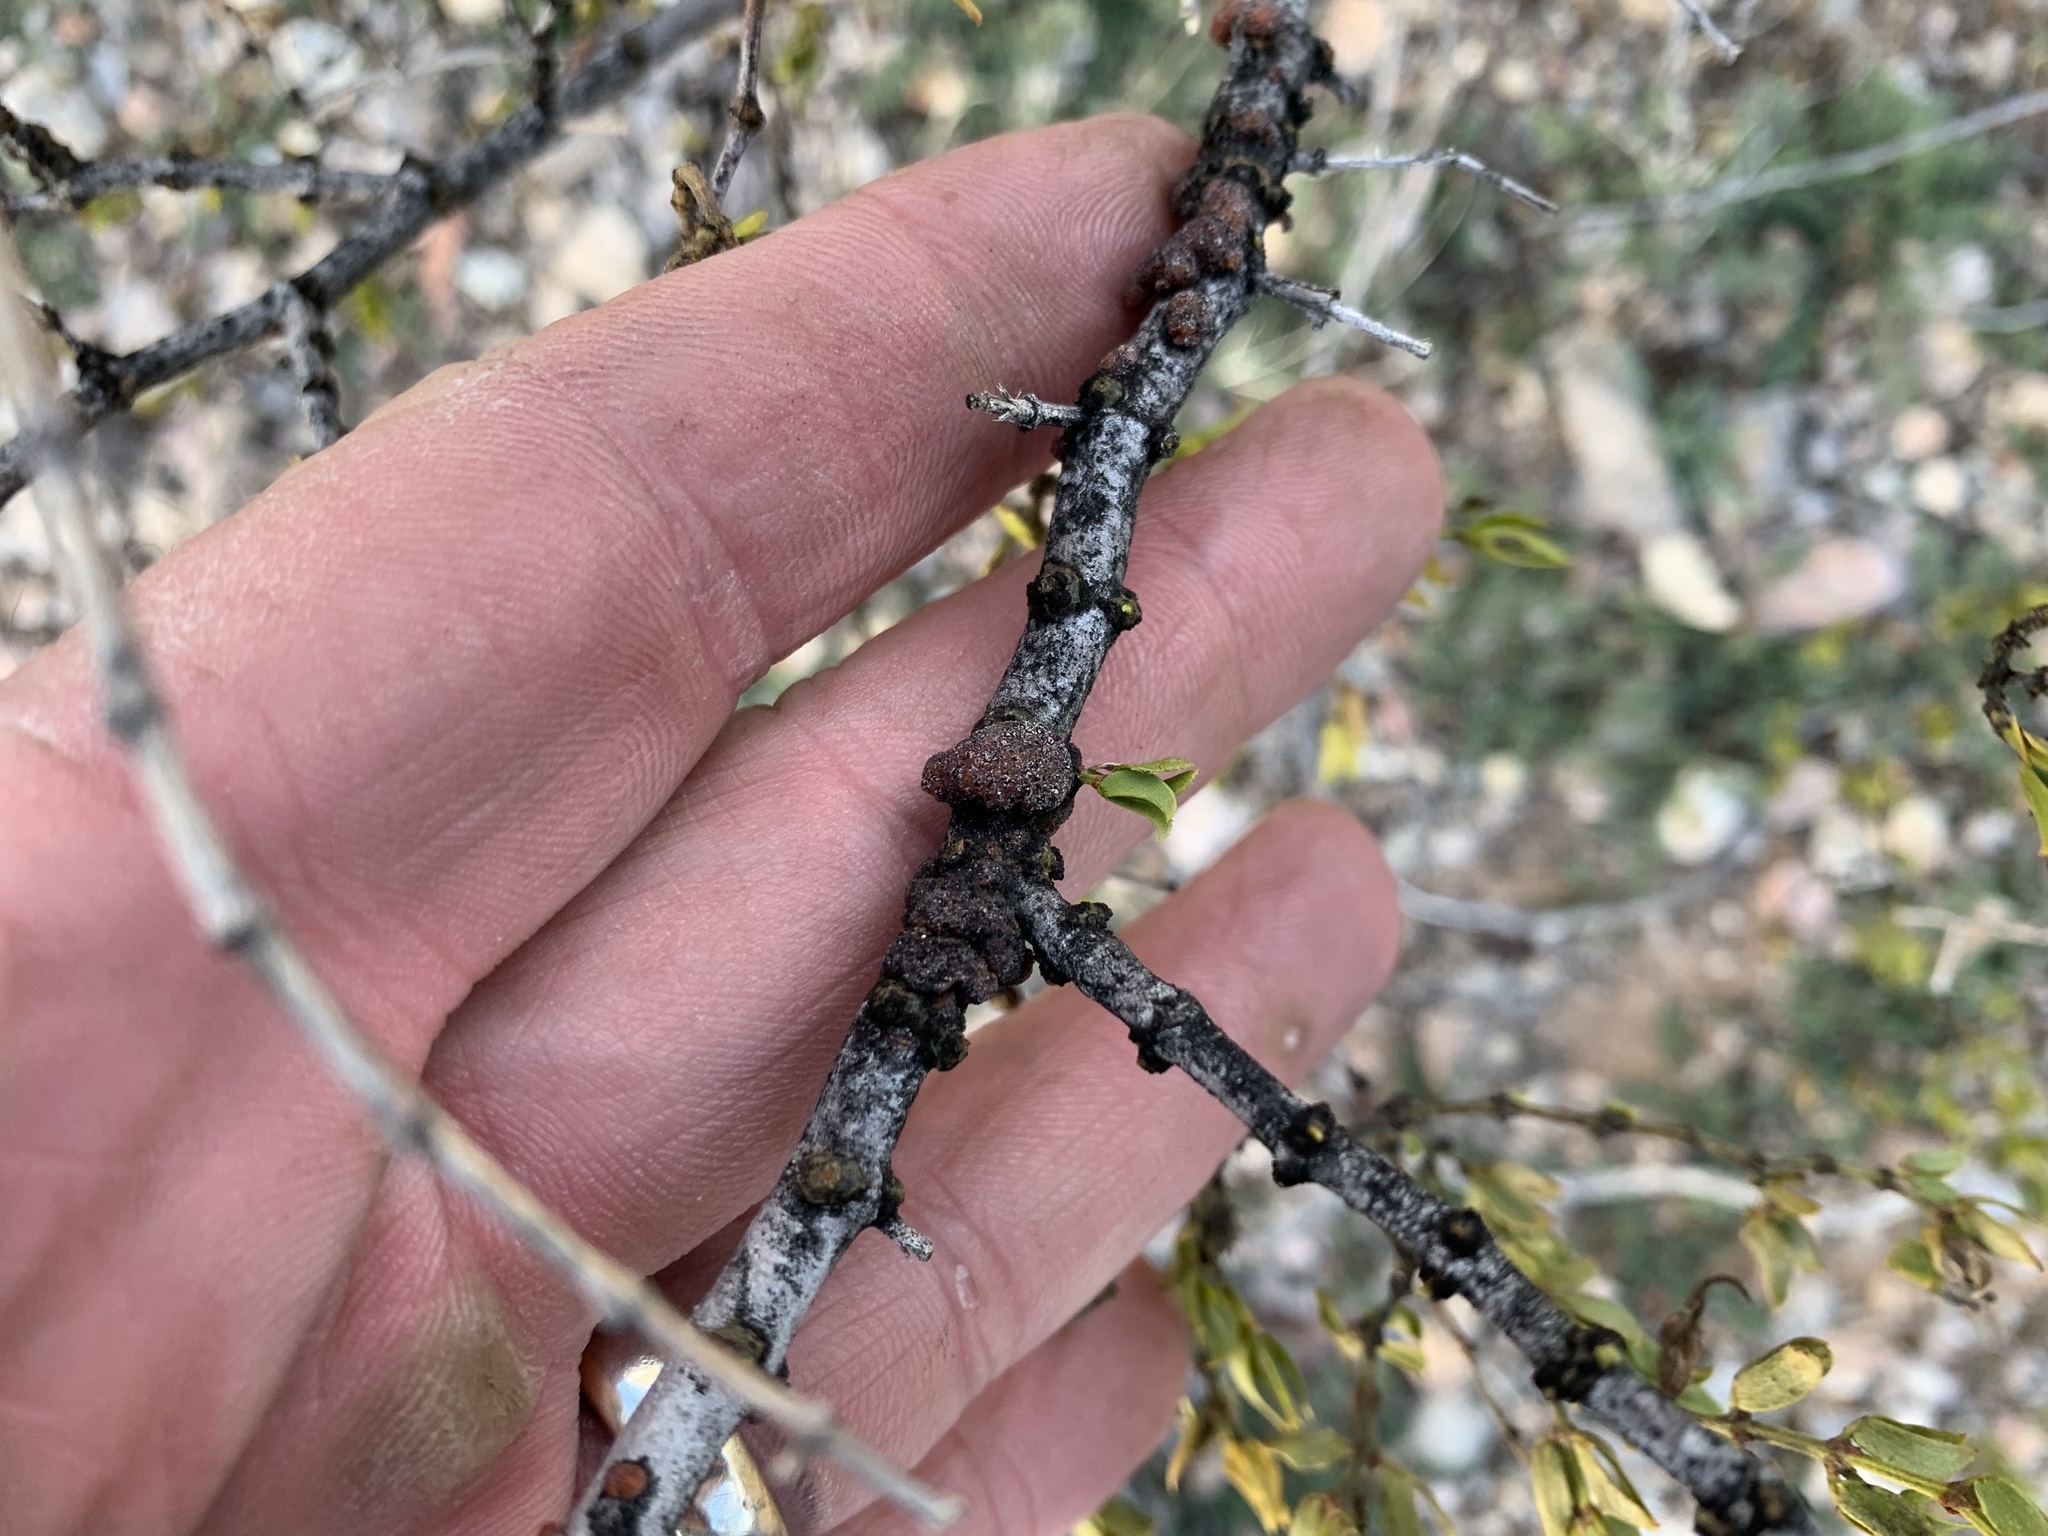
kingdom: Animalia
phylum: Arthropoda
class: Insecta
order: Hemiptera
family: Kerriidae
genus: Tachardiella
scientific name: Tachardiella larreae
